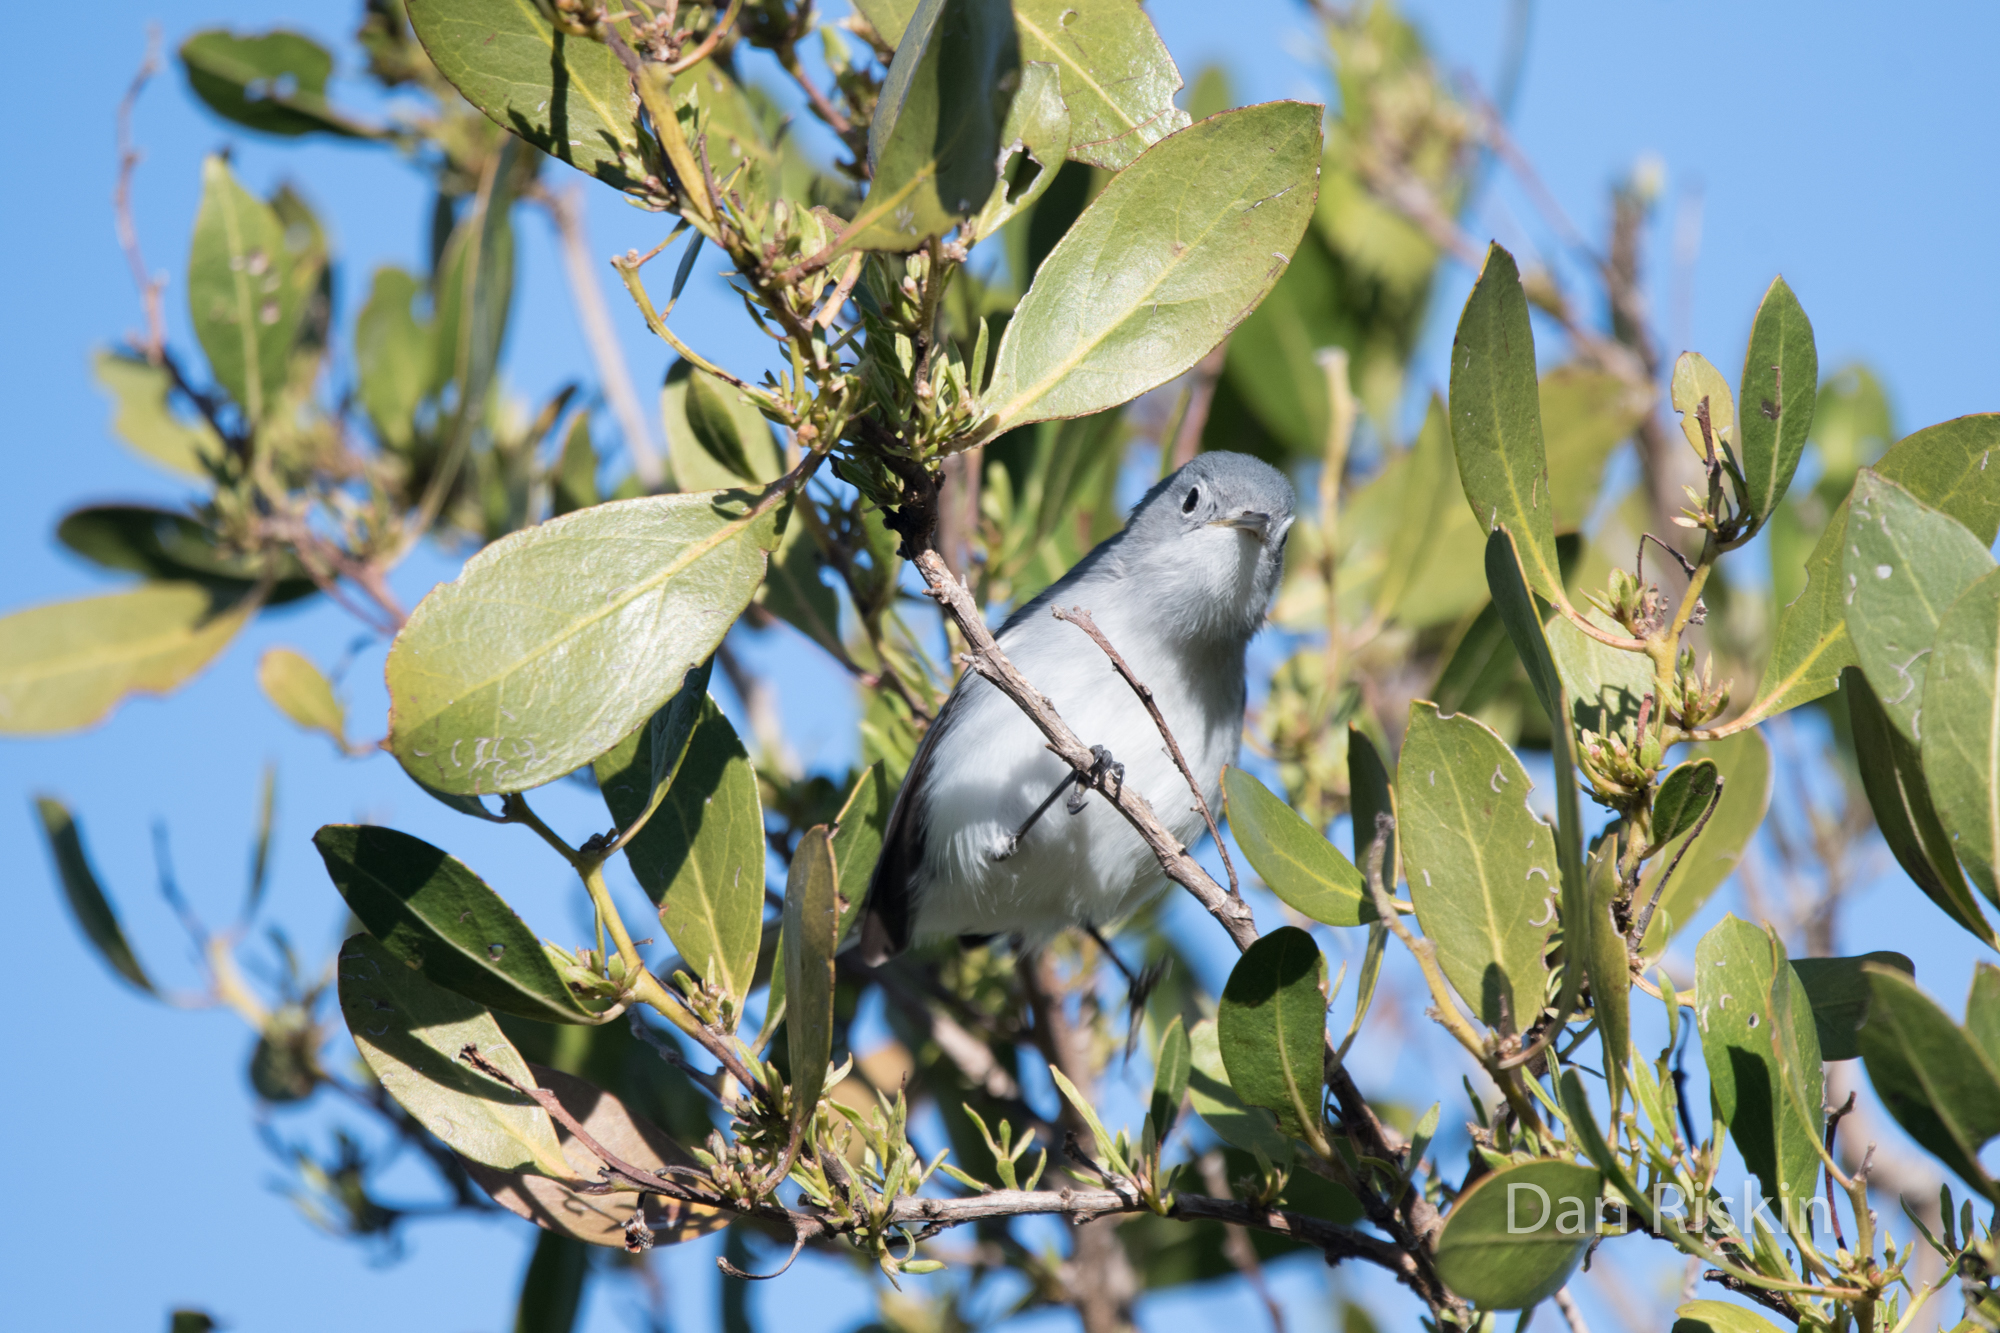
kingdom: Animalia
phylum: Chordata
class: Aves
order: Passeriformes
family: Polioptilidae
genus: Polioptila
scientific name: Polioptila caerulea
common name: Blue-gray gnatcatcher
